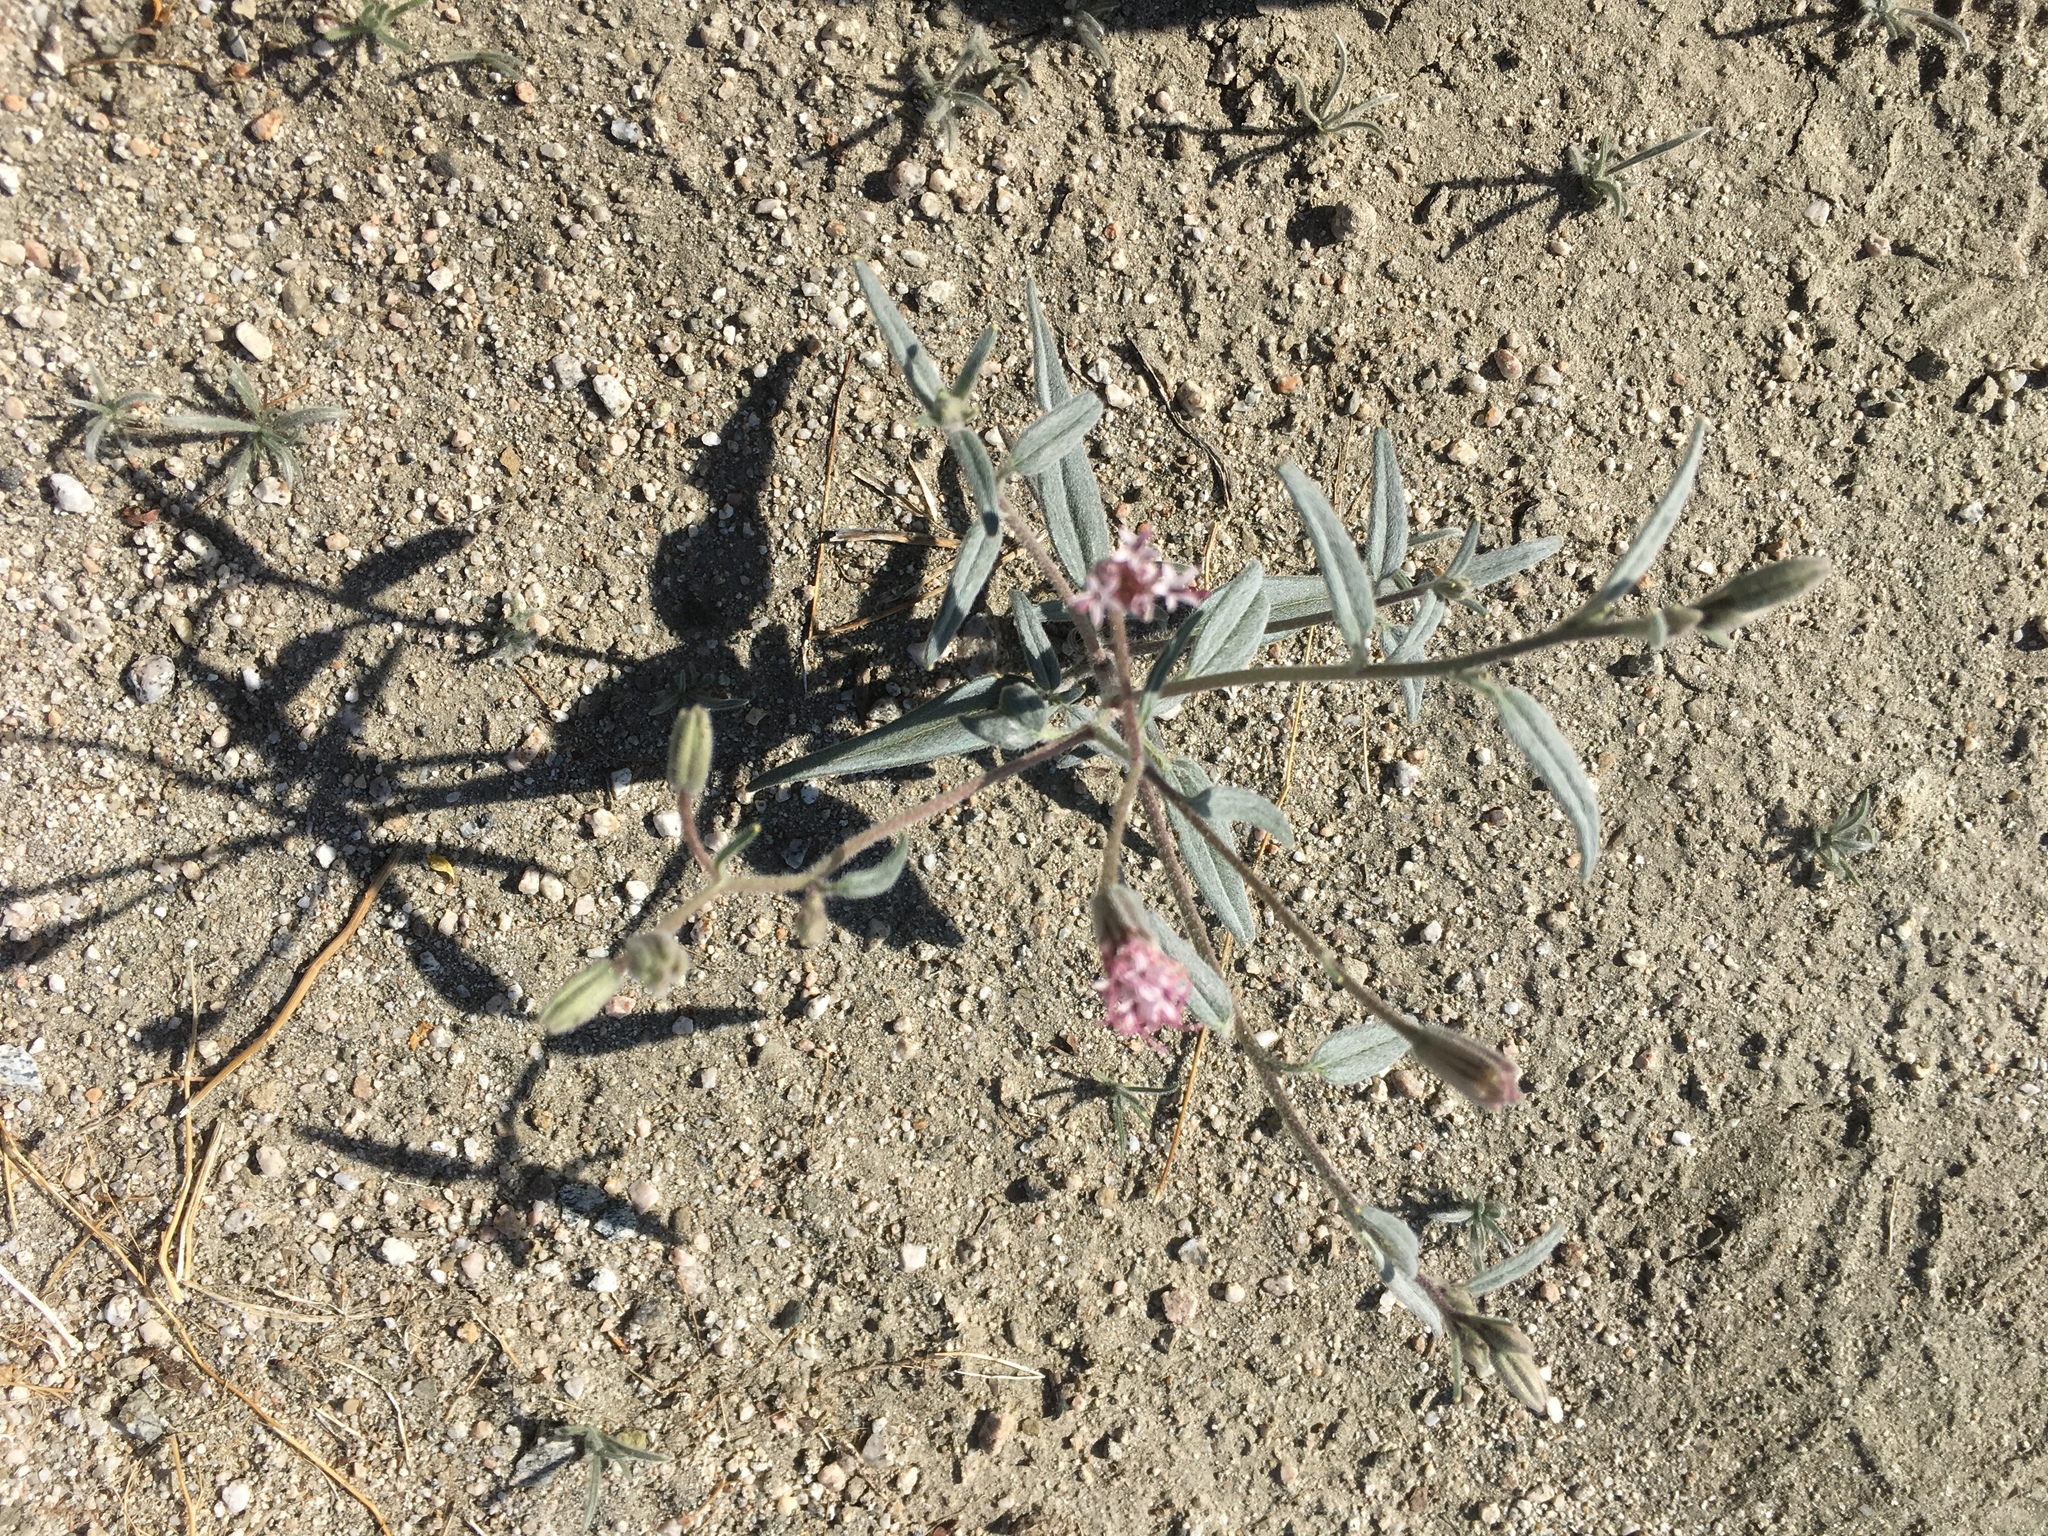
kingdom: Plantae
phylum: Tracheophyta
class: Magnoliopsida
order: Asterales
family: Asteraceae
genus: Palafoxia
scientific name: Palafoxia arida
